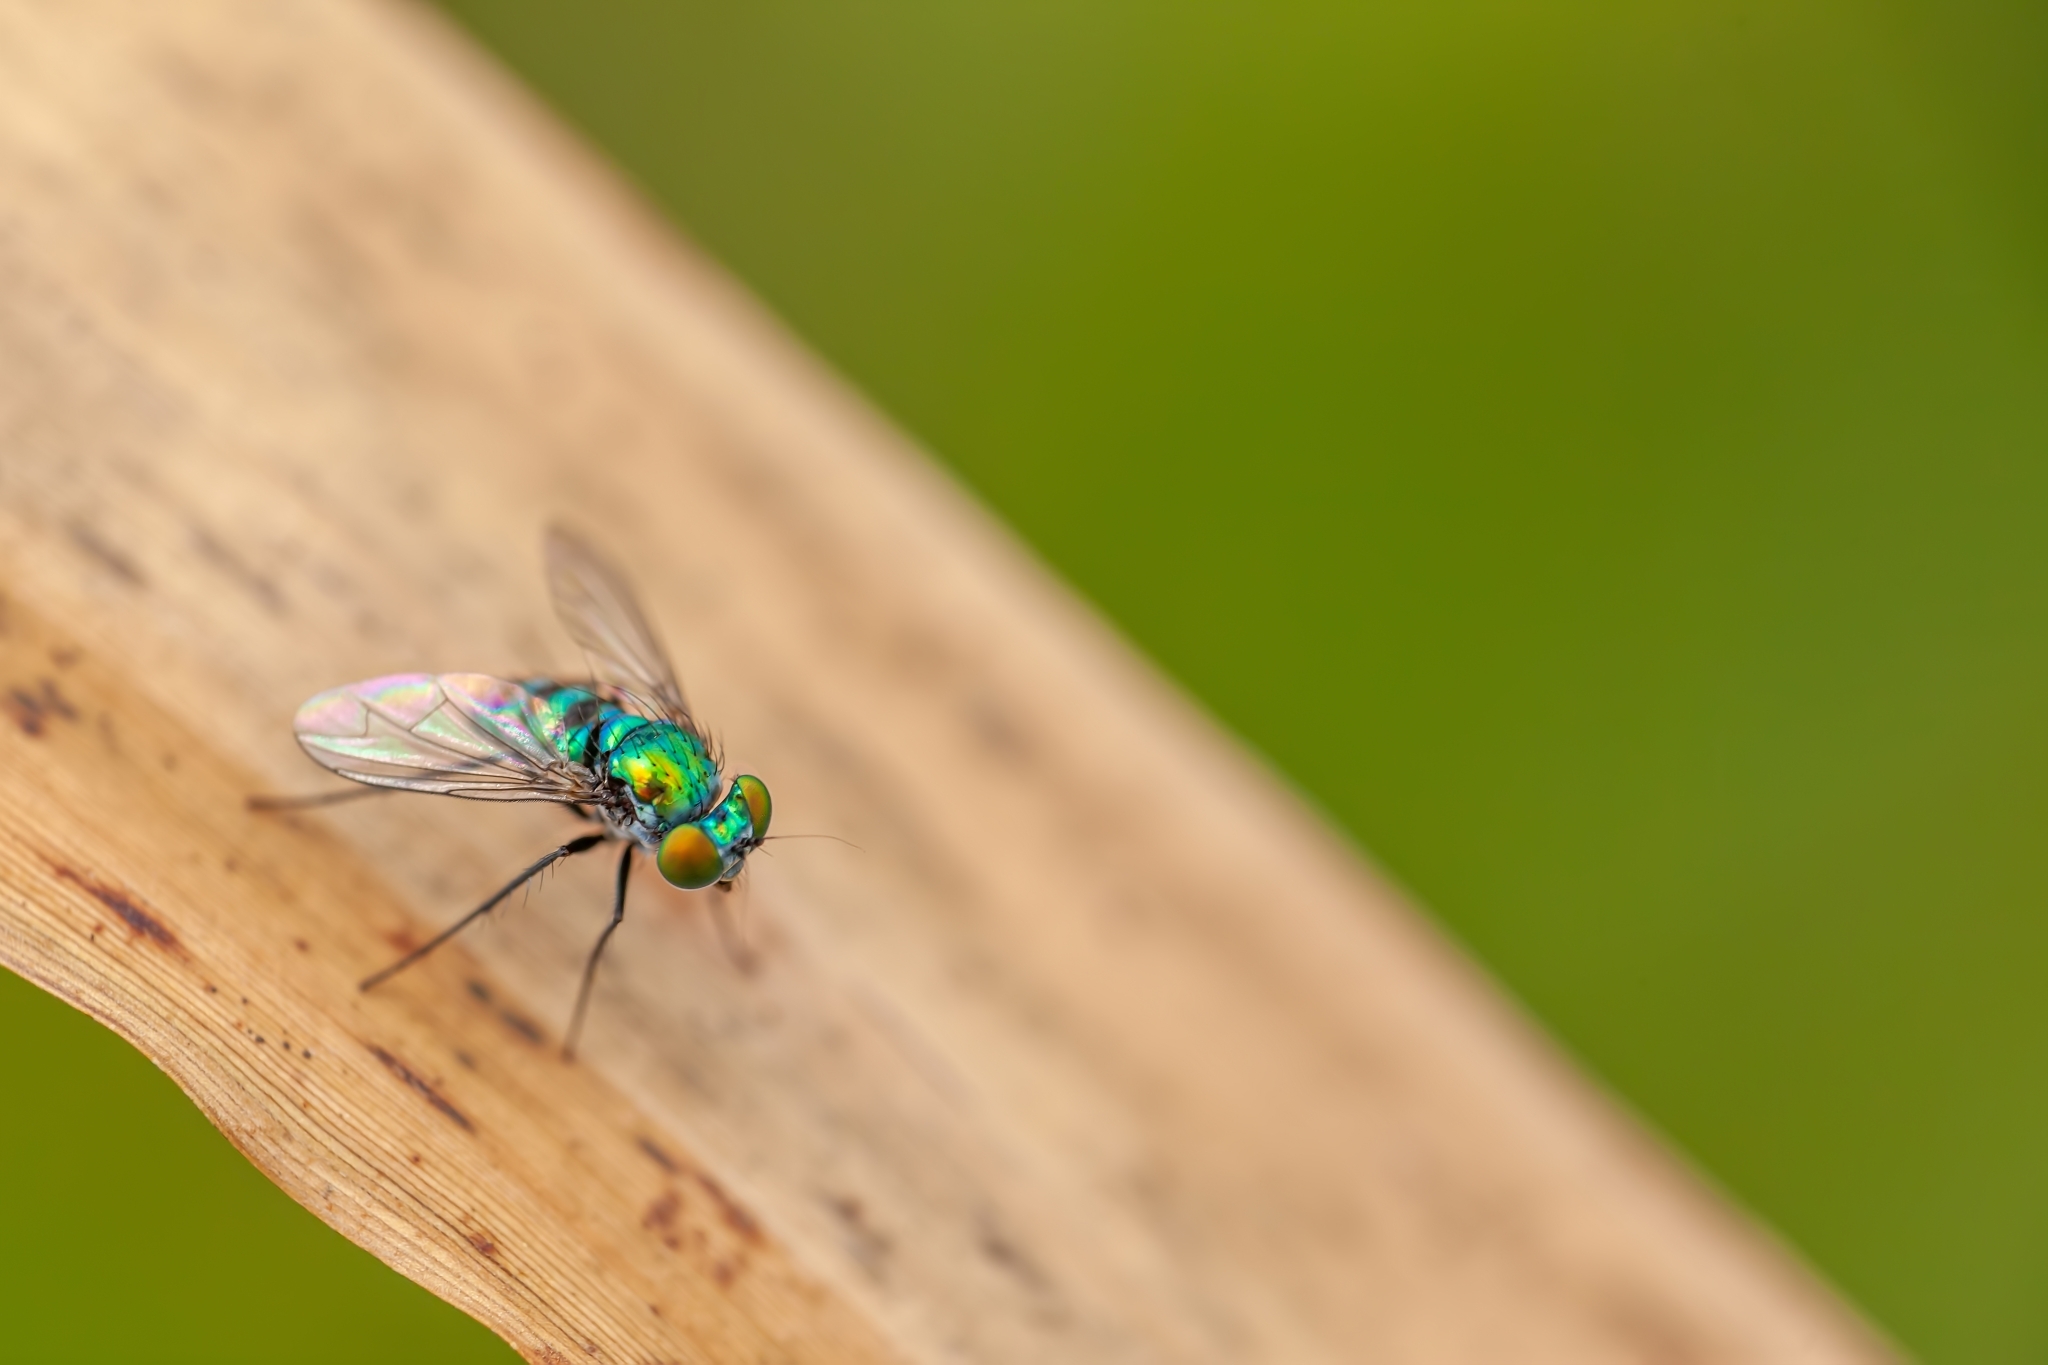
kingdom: Animalia
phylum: Arthropoda
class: Insecta
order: Diptera
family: Dolichopodidae
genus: Condylostylus
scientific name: Condylostylus mundus
